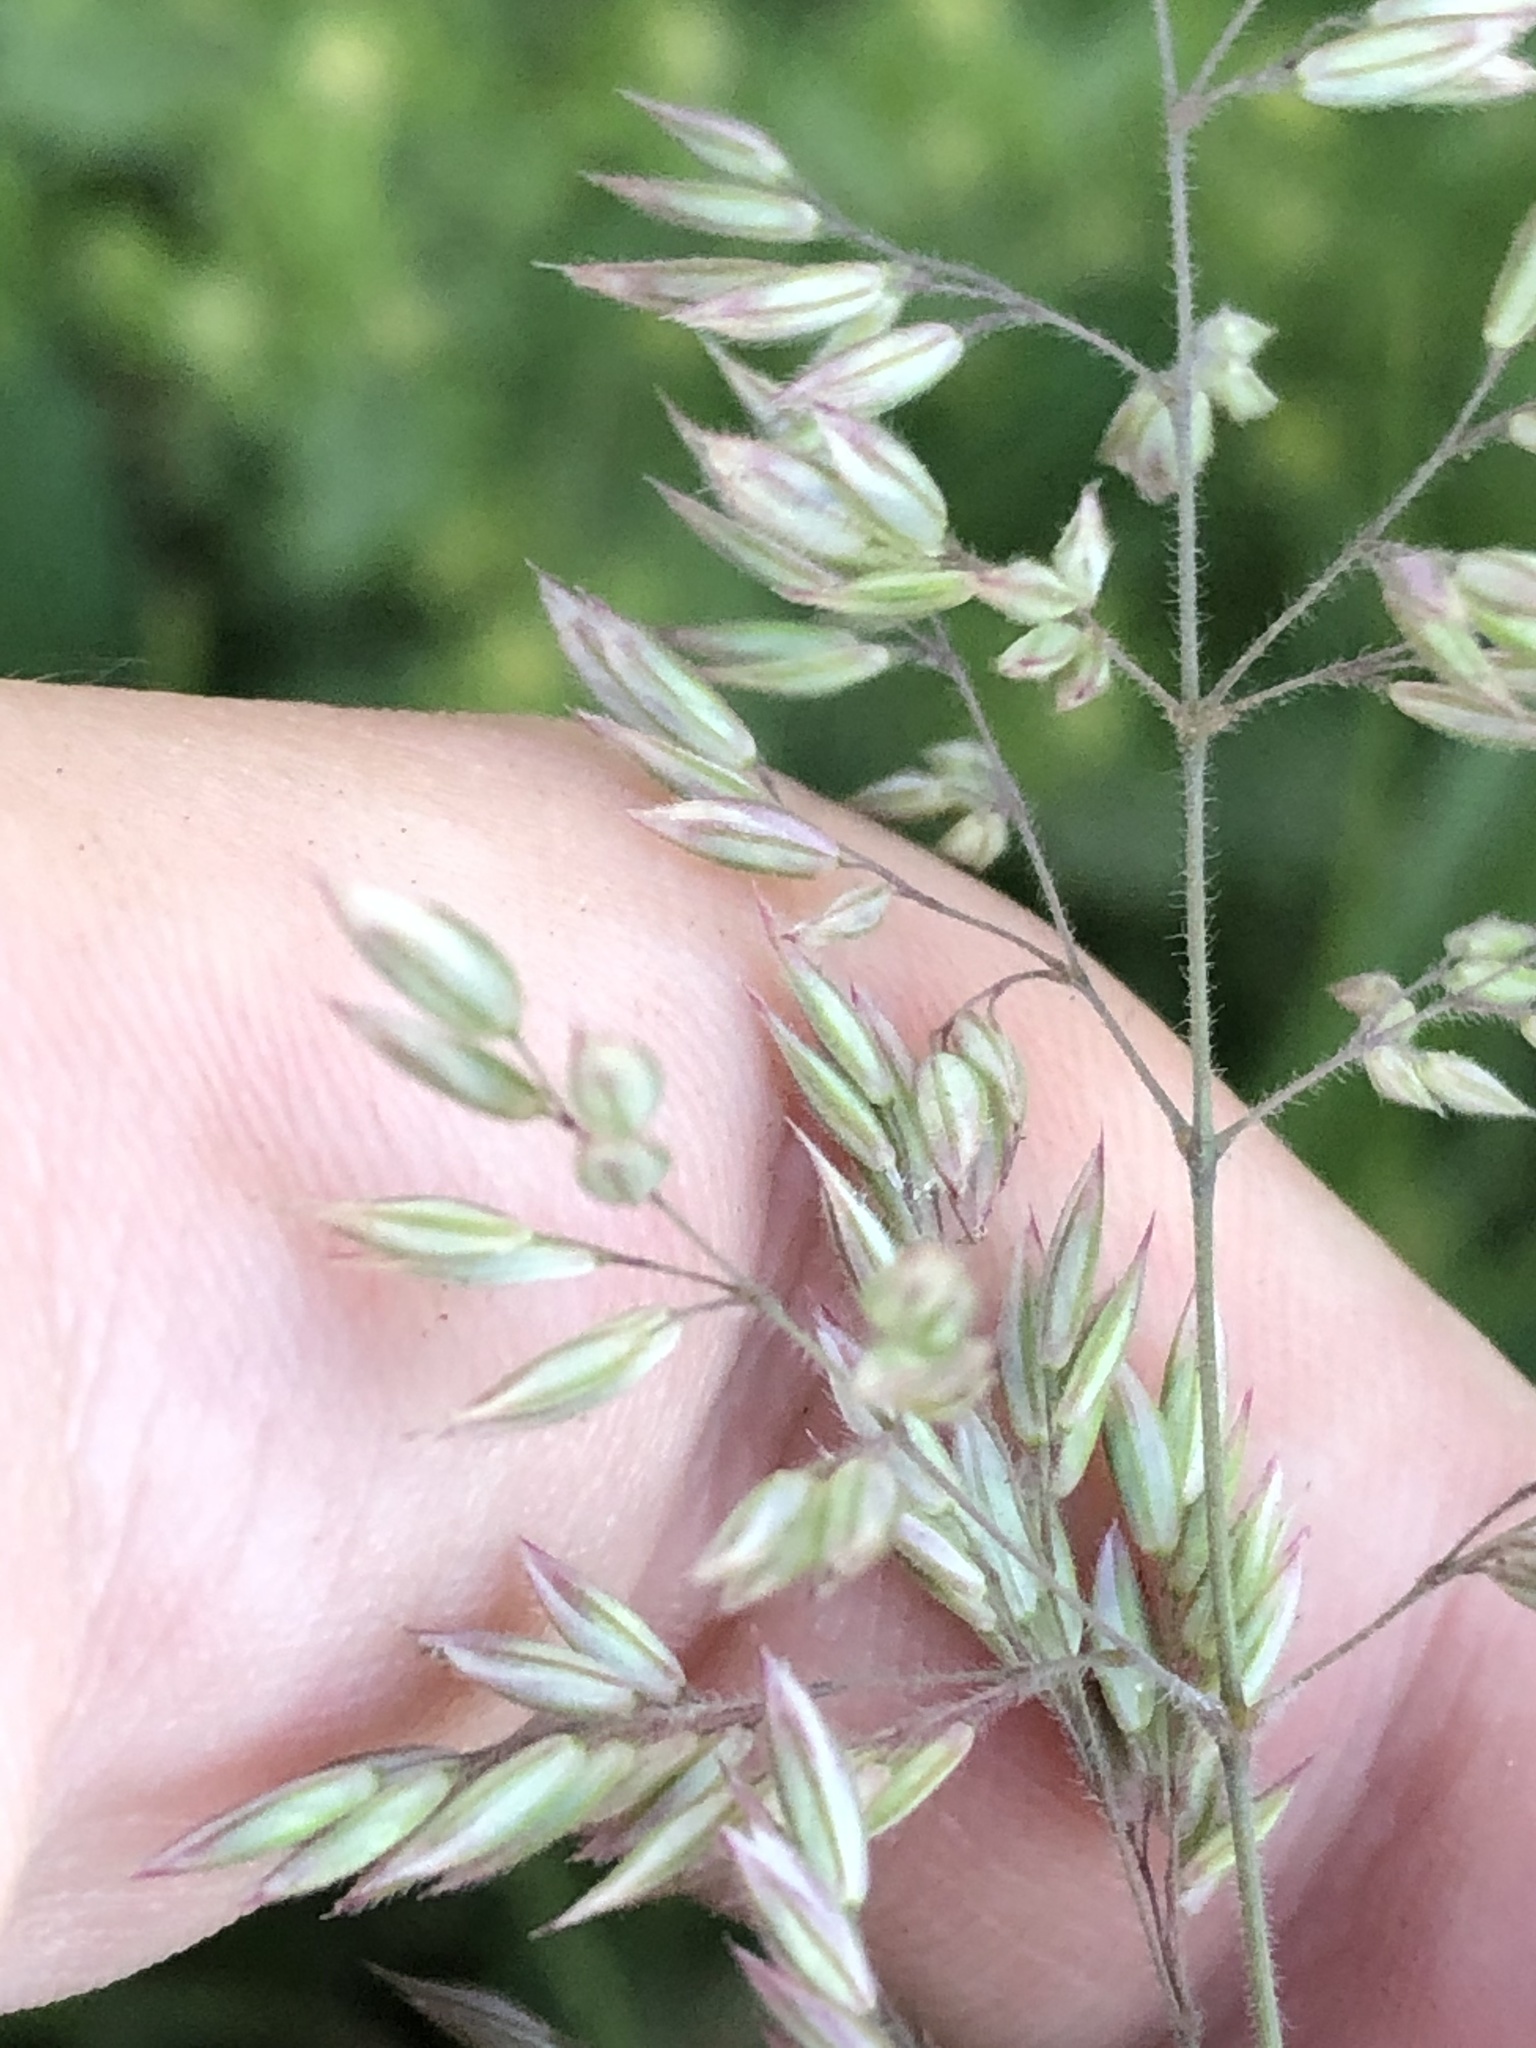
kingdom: Plantae
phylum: Tracheophyta
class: Liliopsida
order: Poales
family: Poaceae
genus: Holcus
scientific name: Holcus lanatus
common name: Yorkshire-fog
